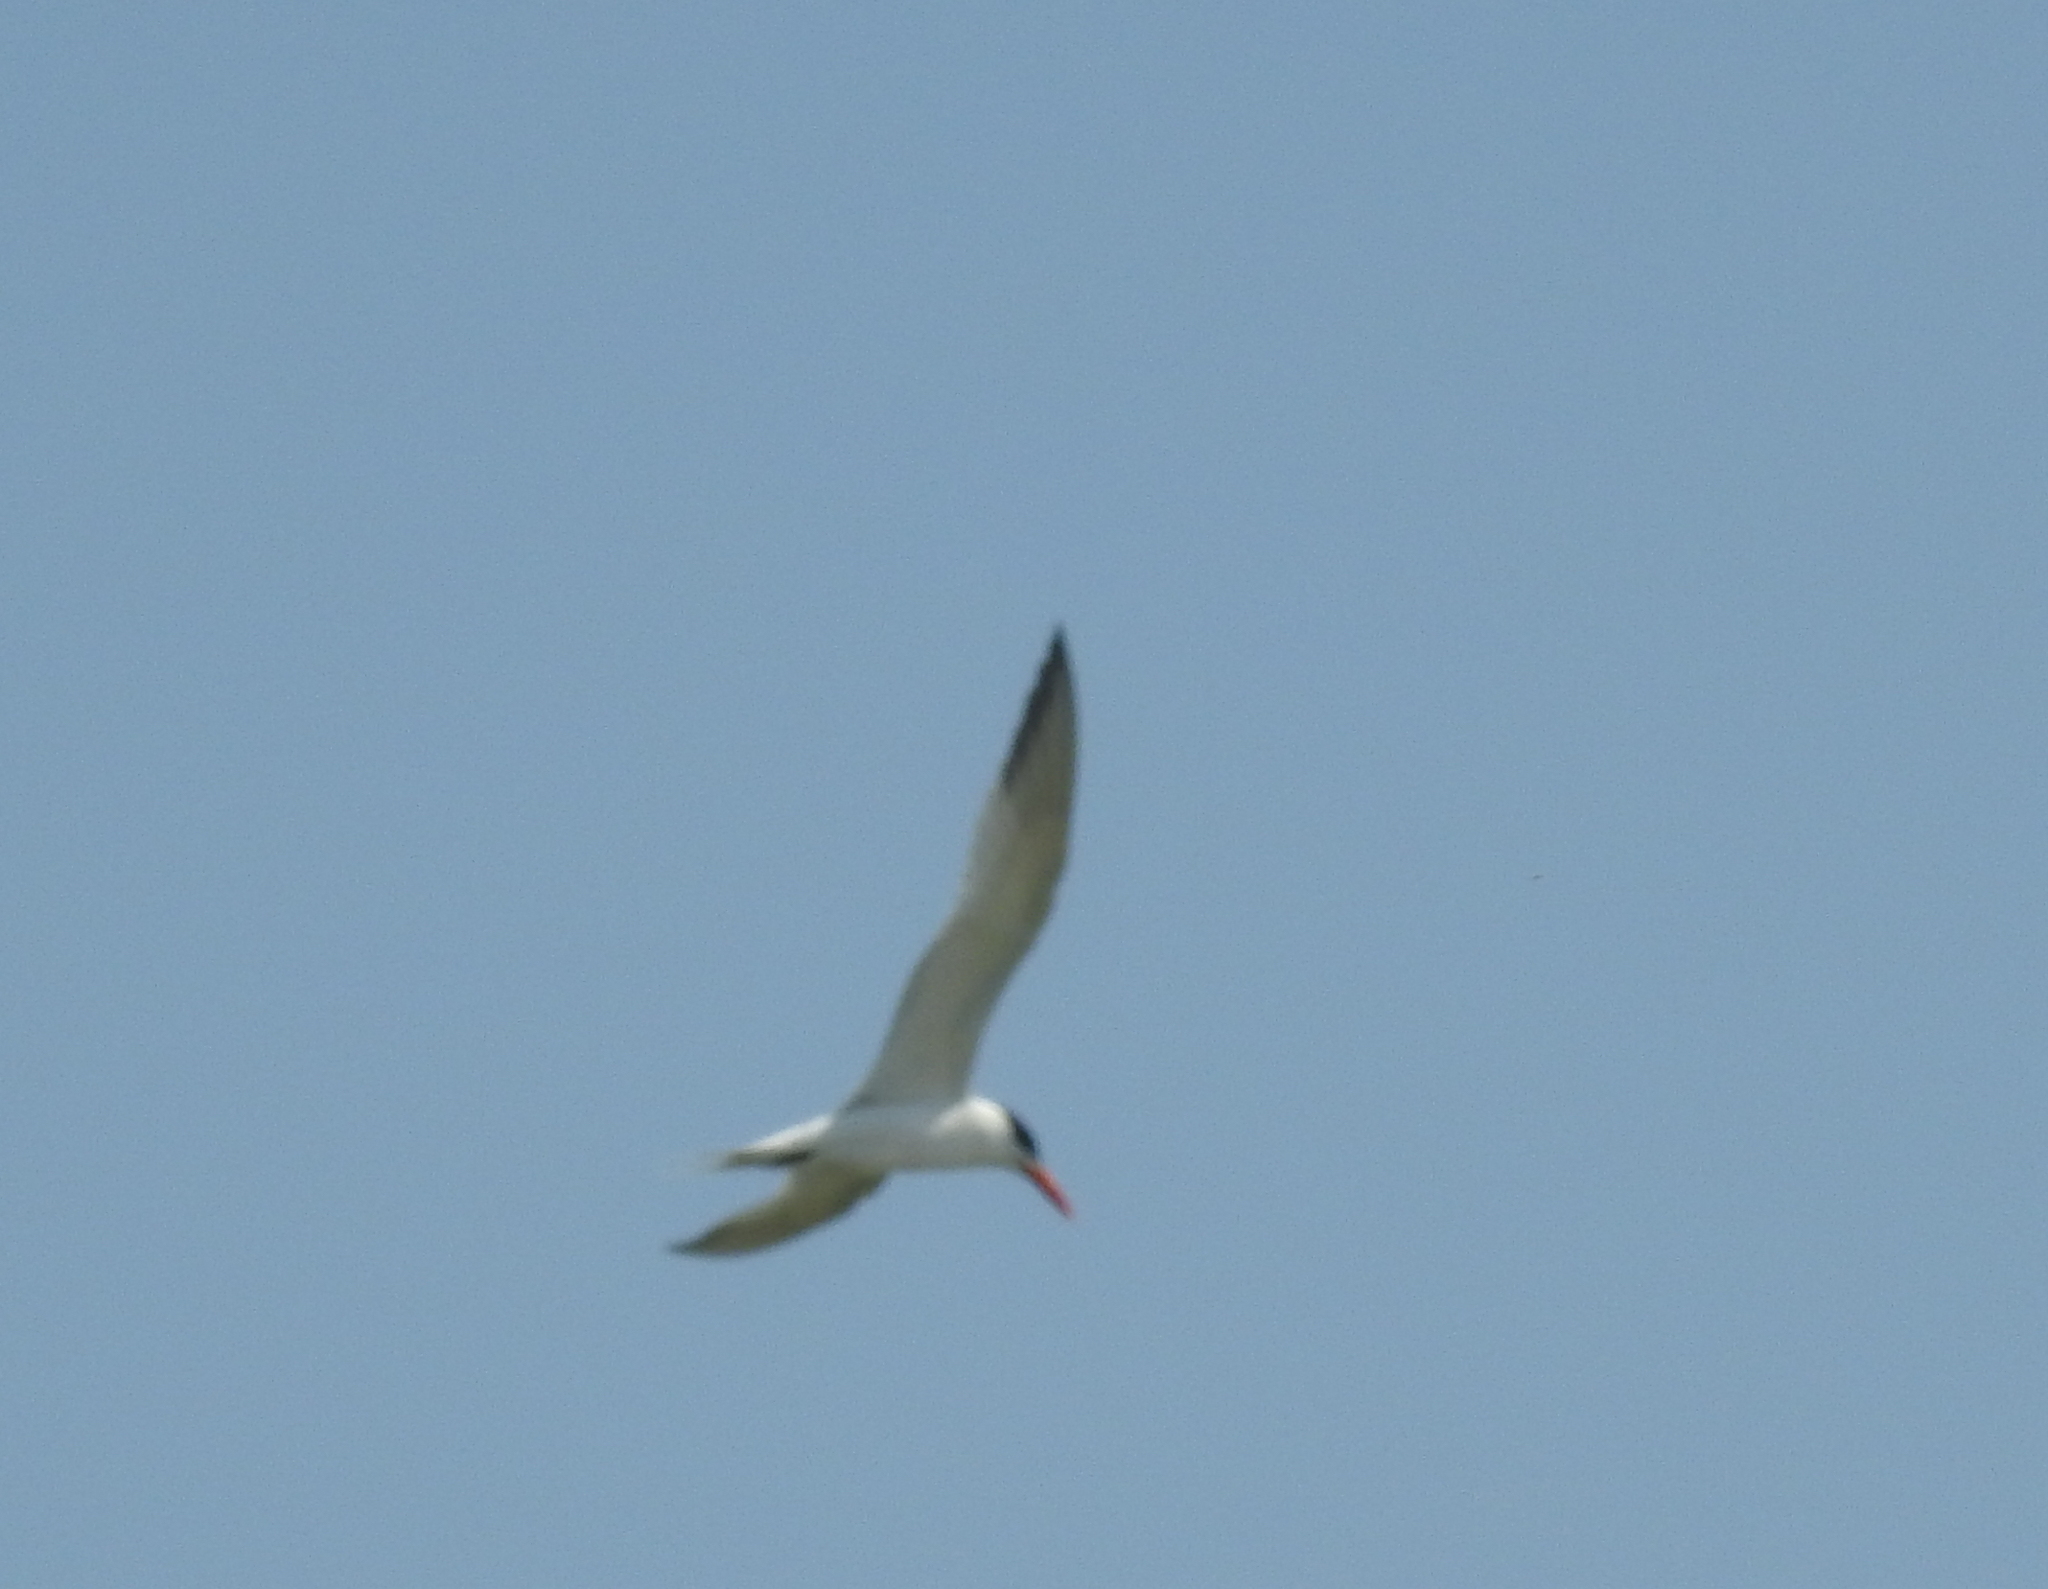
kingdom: Animalia
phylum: Chordata
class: Aves
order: Charadriiformes
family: Laridae
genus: Thalasseus
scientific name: Thalasseus maximus
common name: Royal tern
